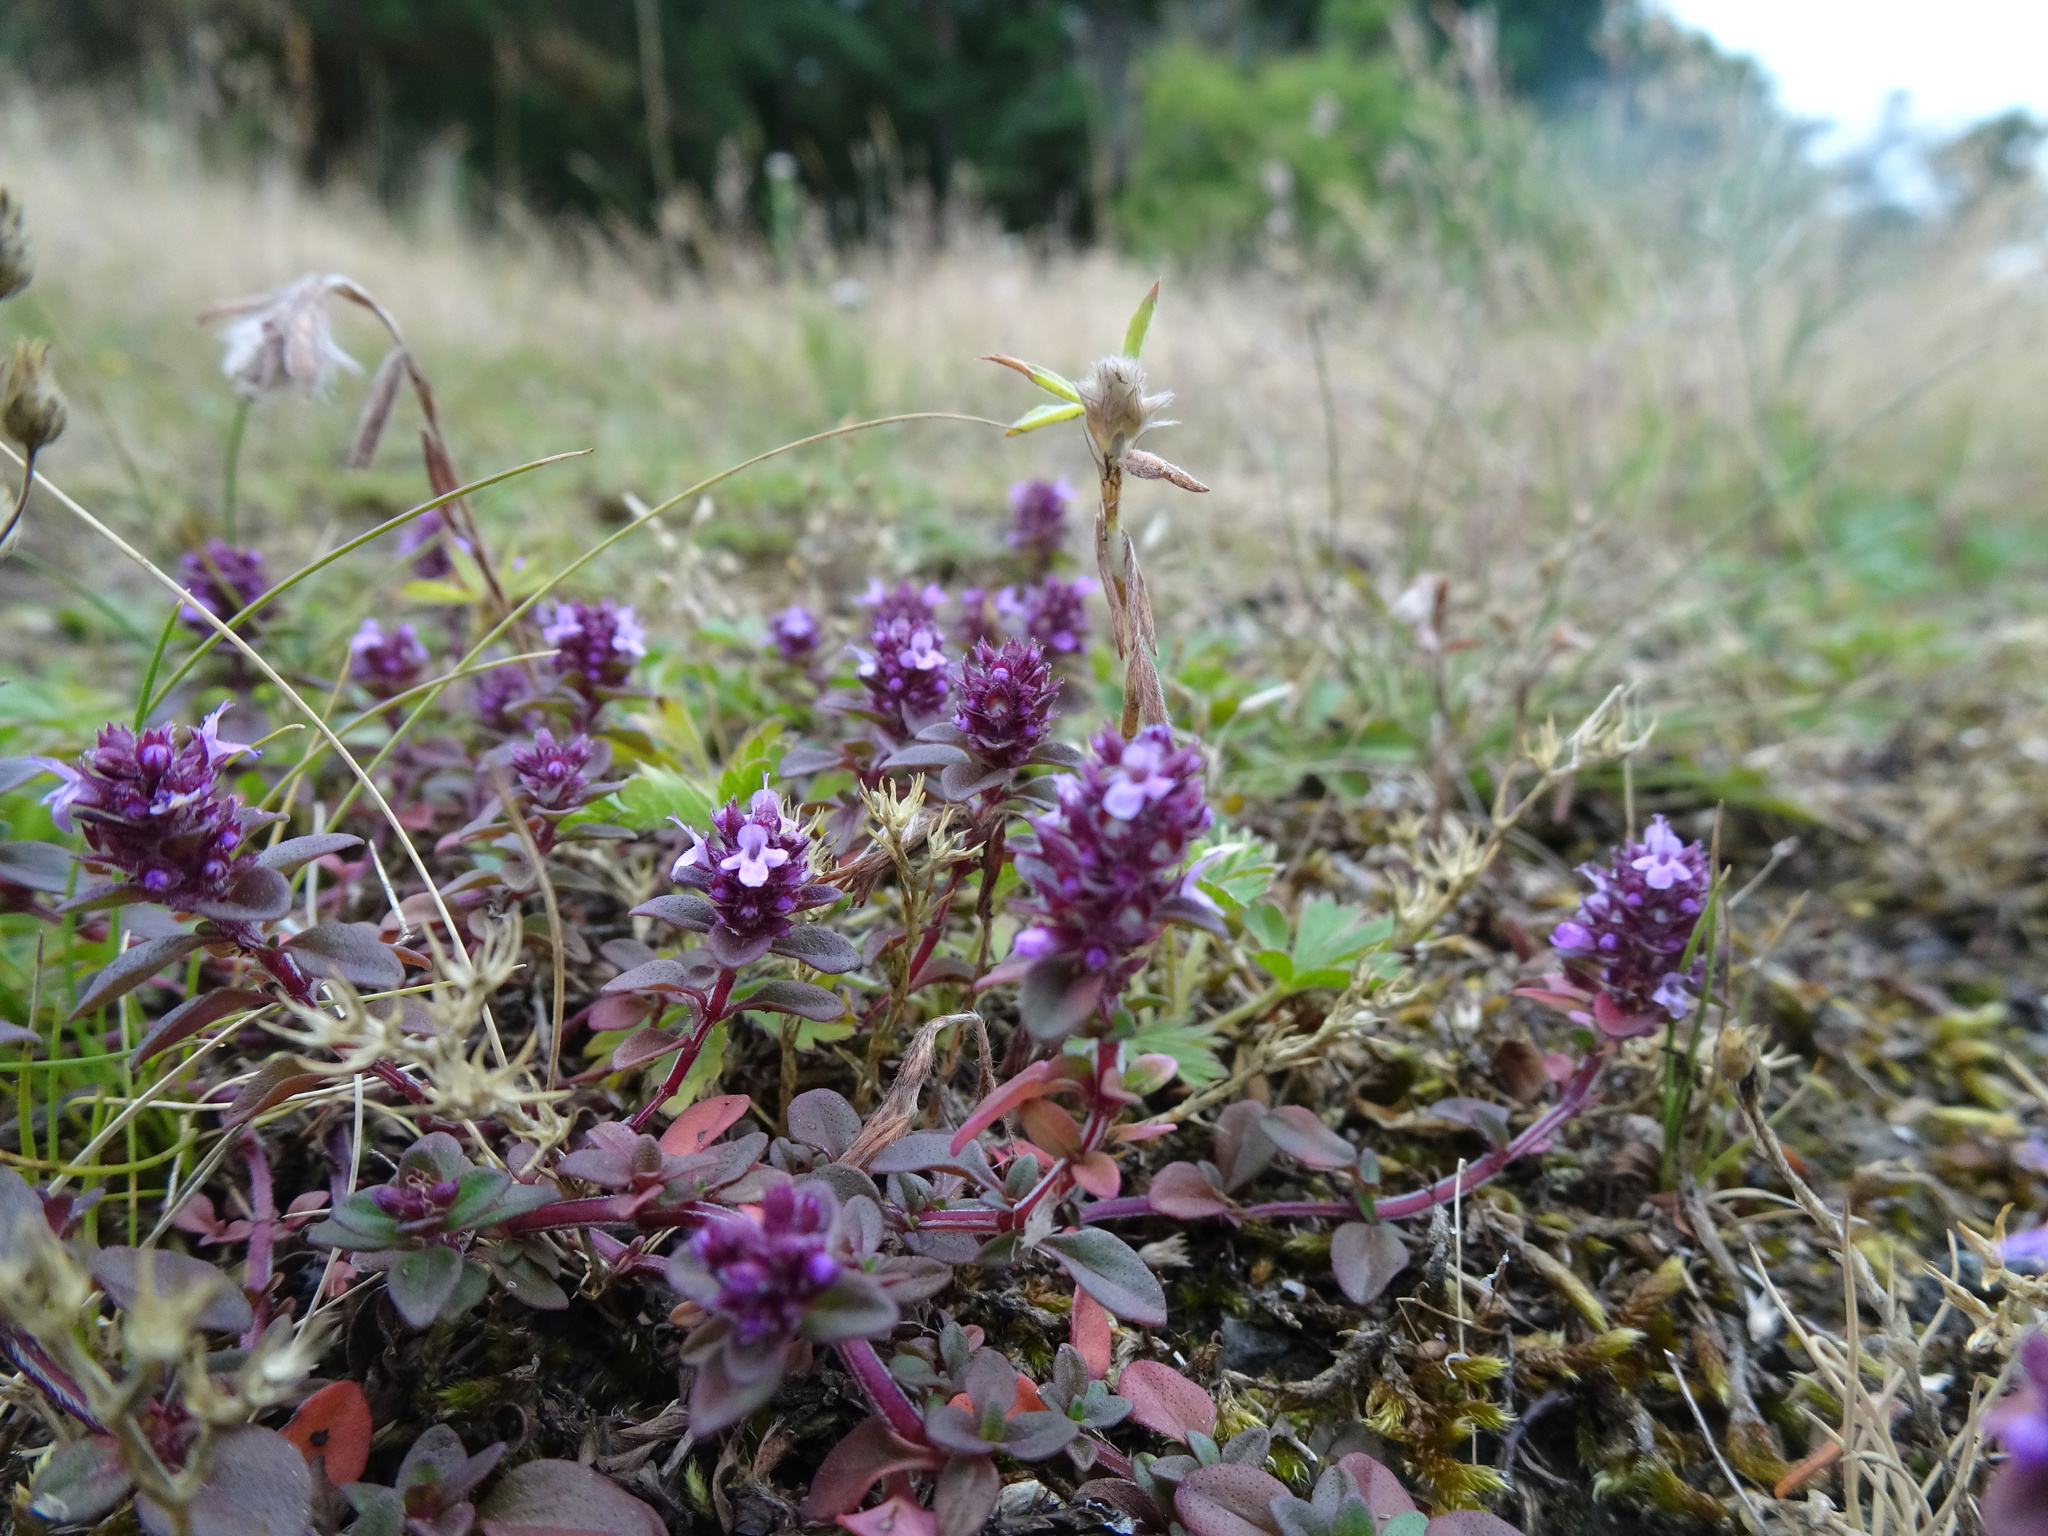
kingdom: Plantae
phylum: Tracheophyta
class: Magnoliopsida
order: Lamiales
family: Lamiaceae
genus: Thymus
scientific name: Thymus pulegioides
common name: Large thyme
